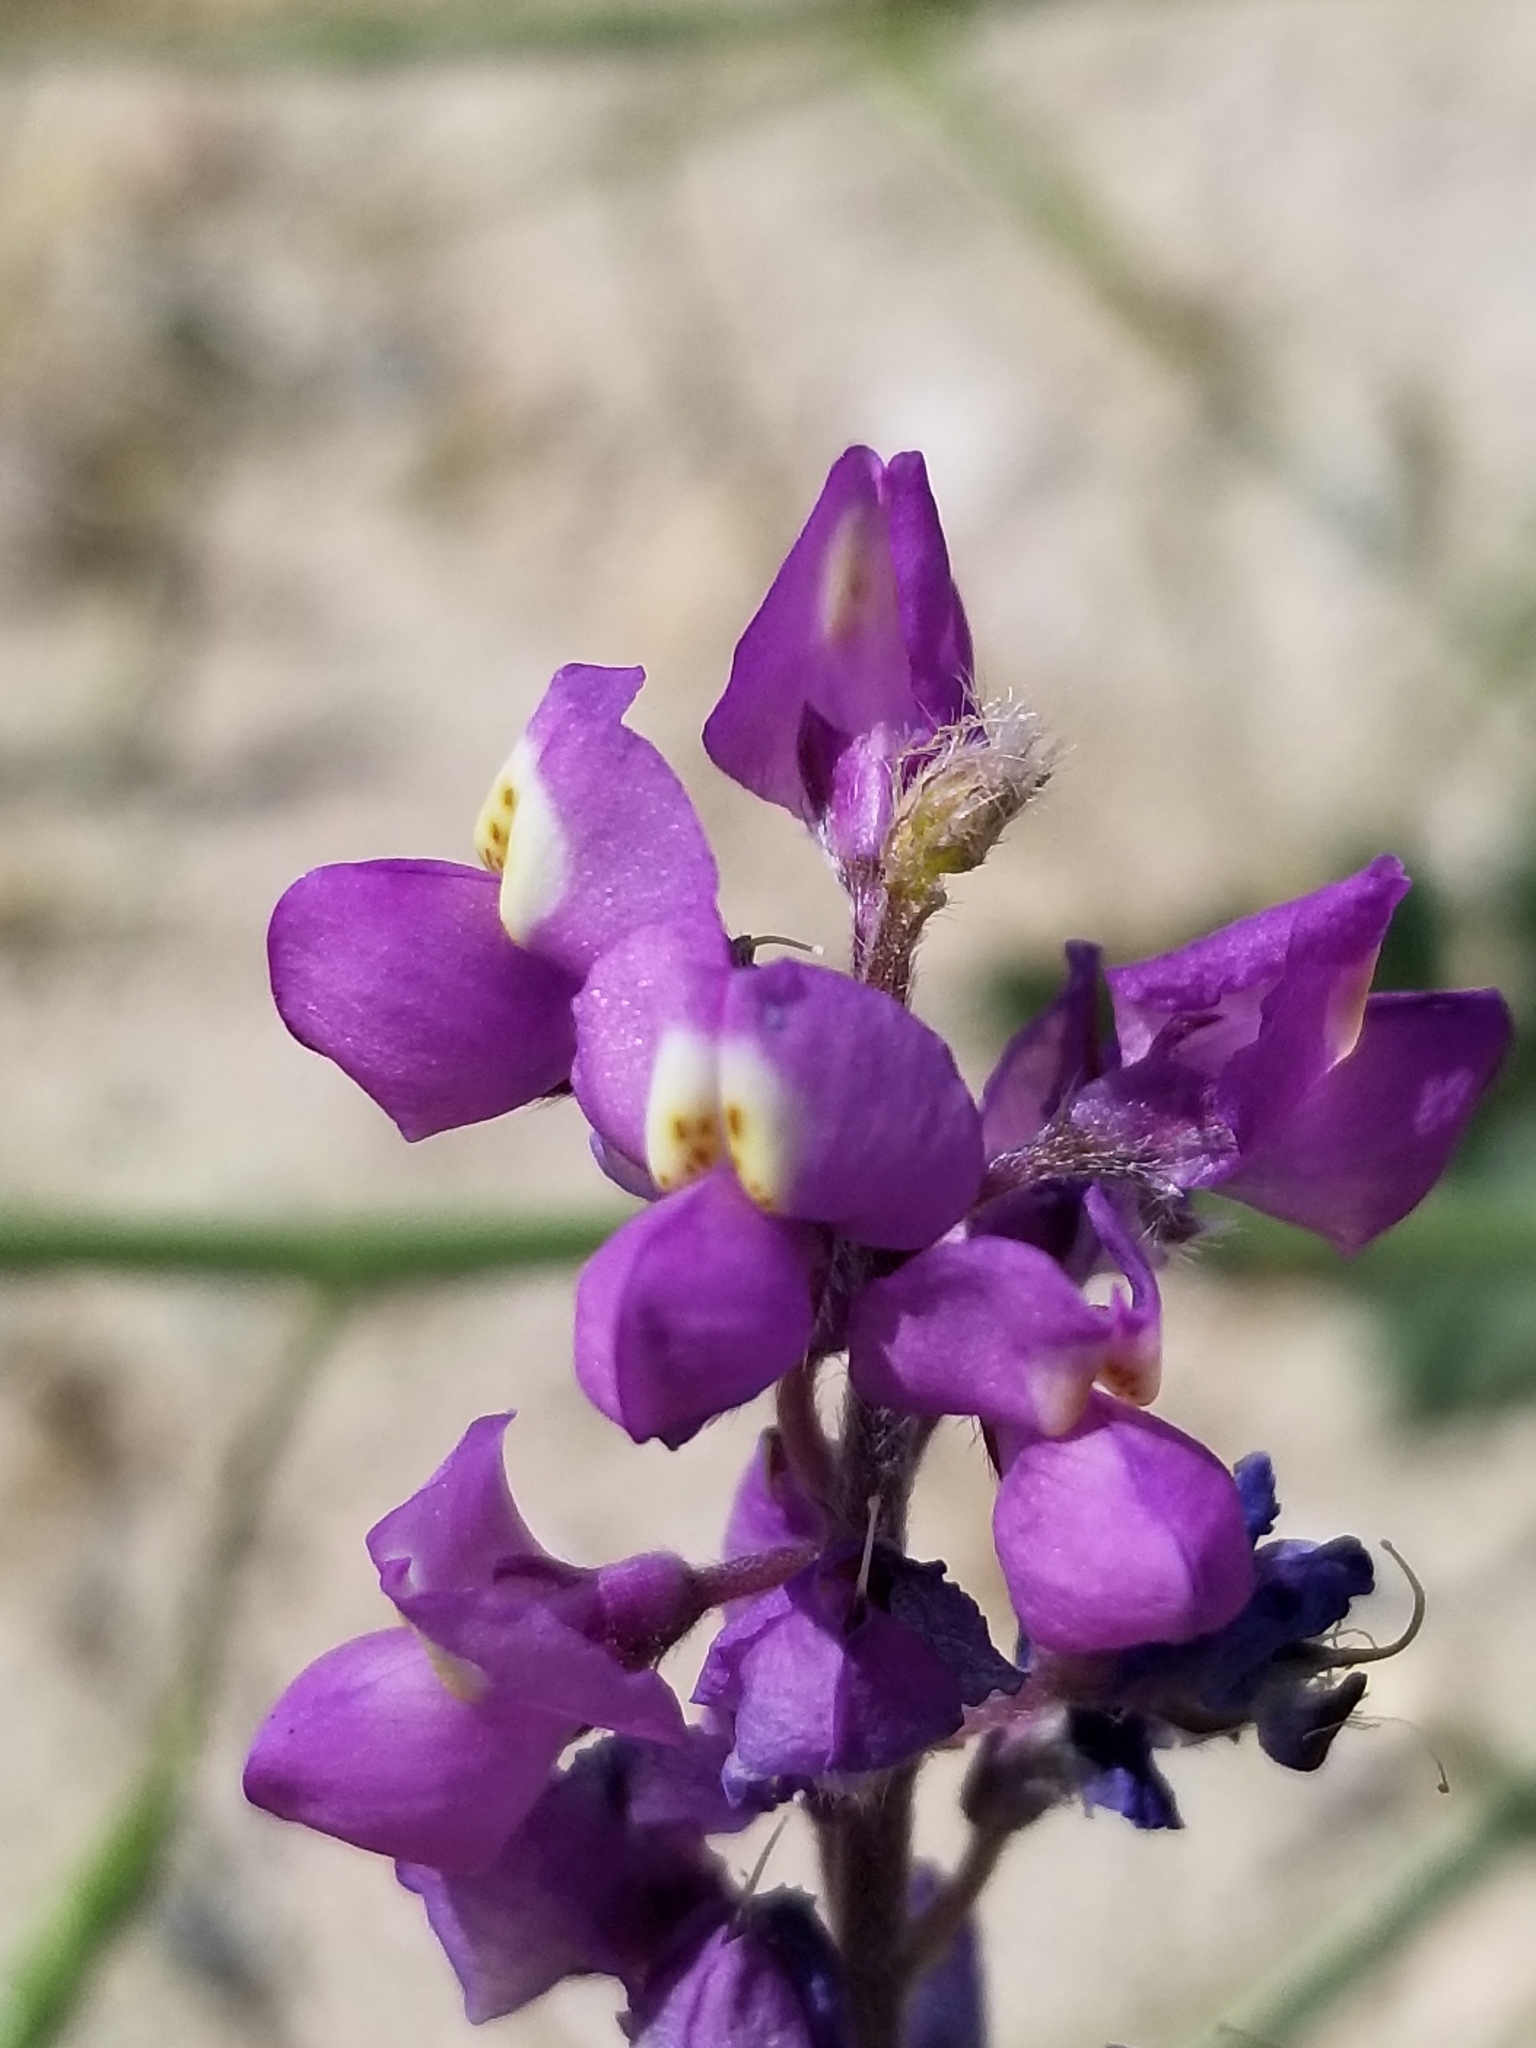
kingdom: Plantae
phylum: Tracheophyta
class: Magnoliopsida
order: Fabales
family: Fabaceae
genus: Lupinus
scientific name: Lupinus arizonicus
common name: Arizona lupine
